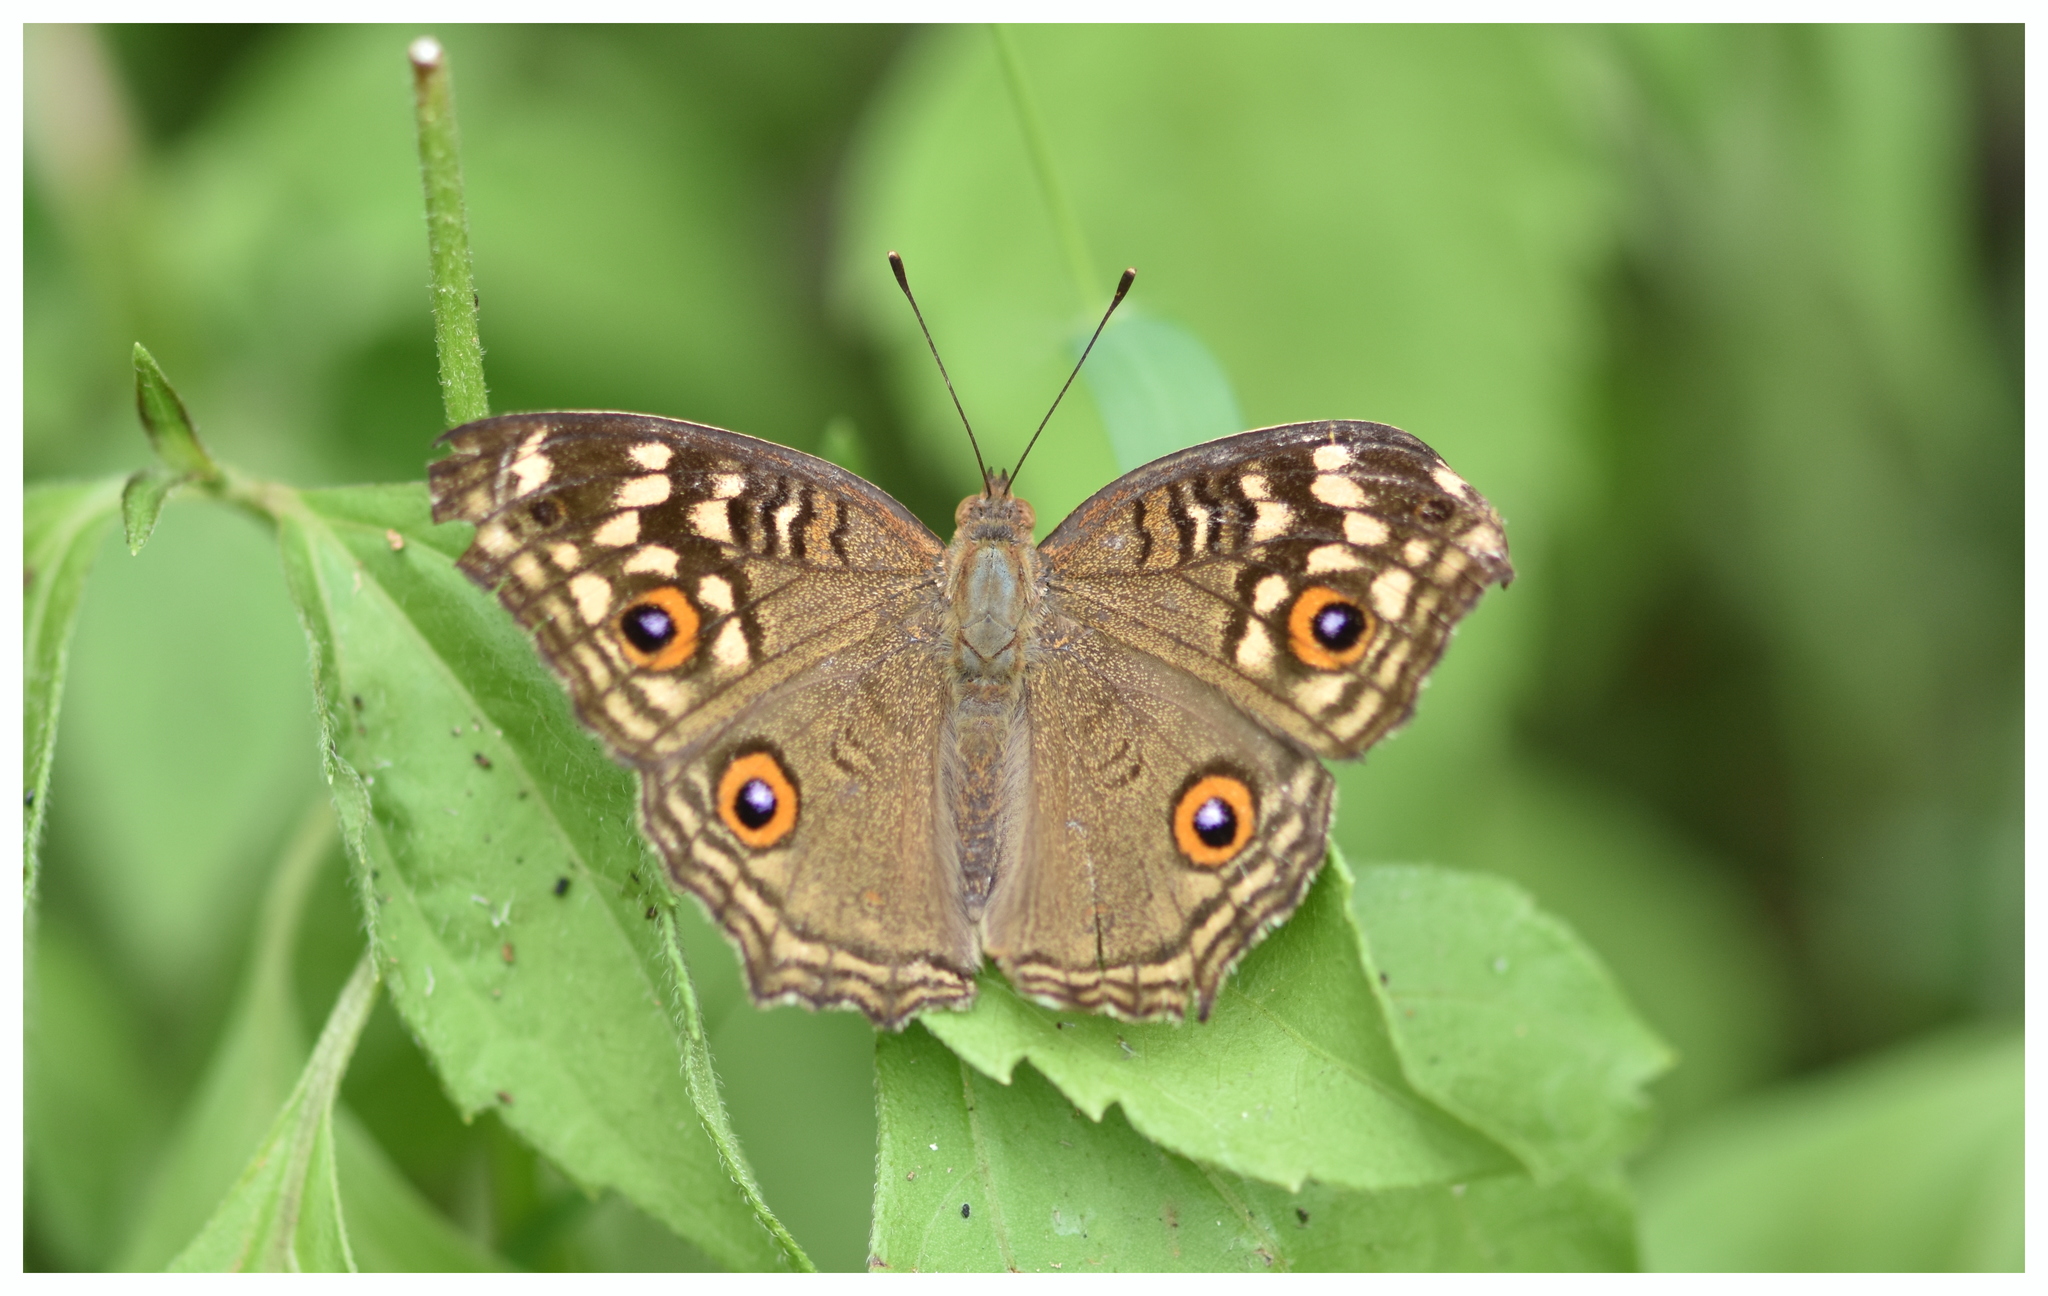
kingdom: Animalia
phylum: Arthropoda
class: Insecta
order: Lepidoptera
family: Nymphalidae
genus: Junonia
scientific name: Junonia lemonias
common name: Lemon pansy
